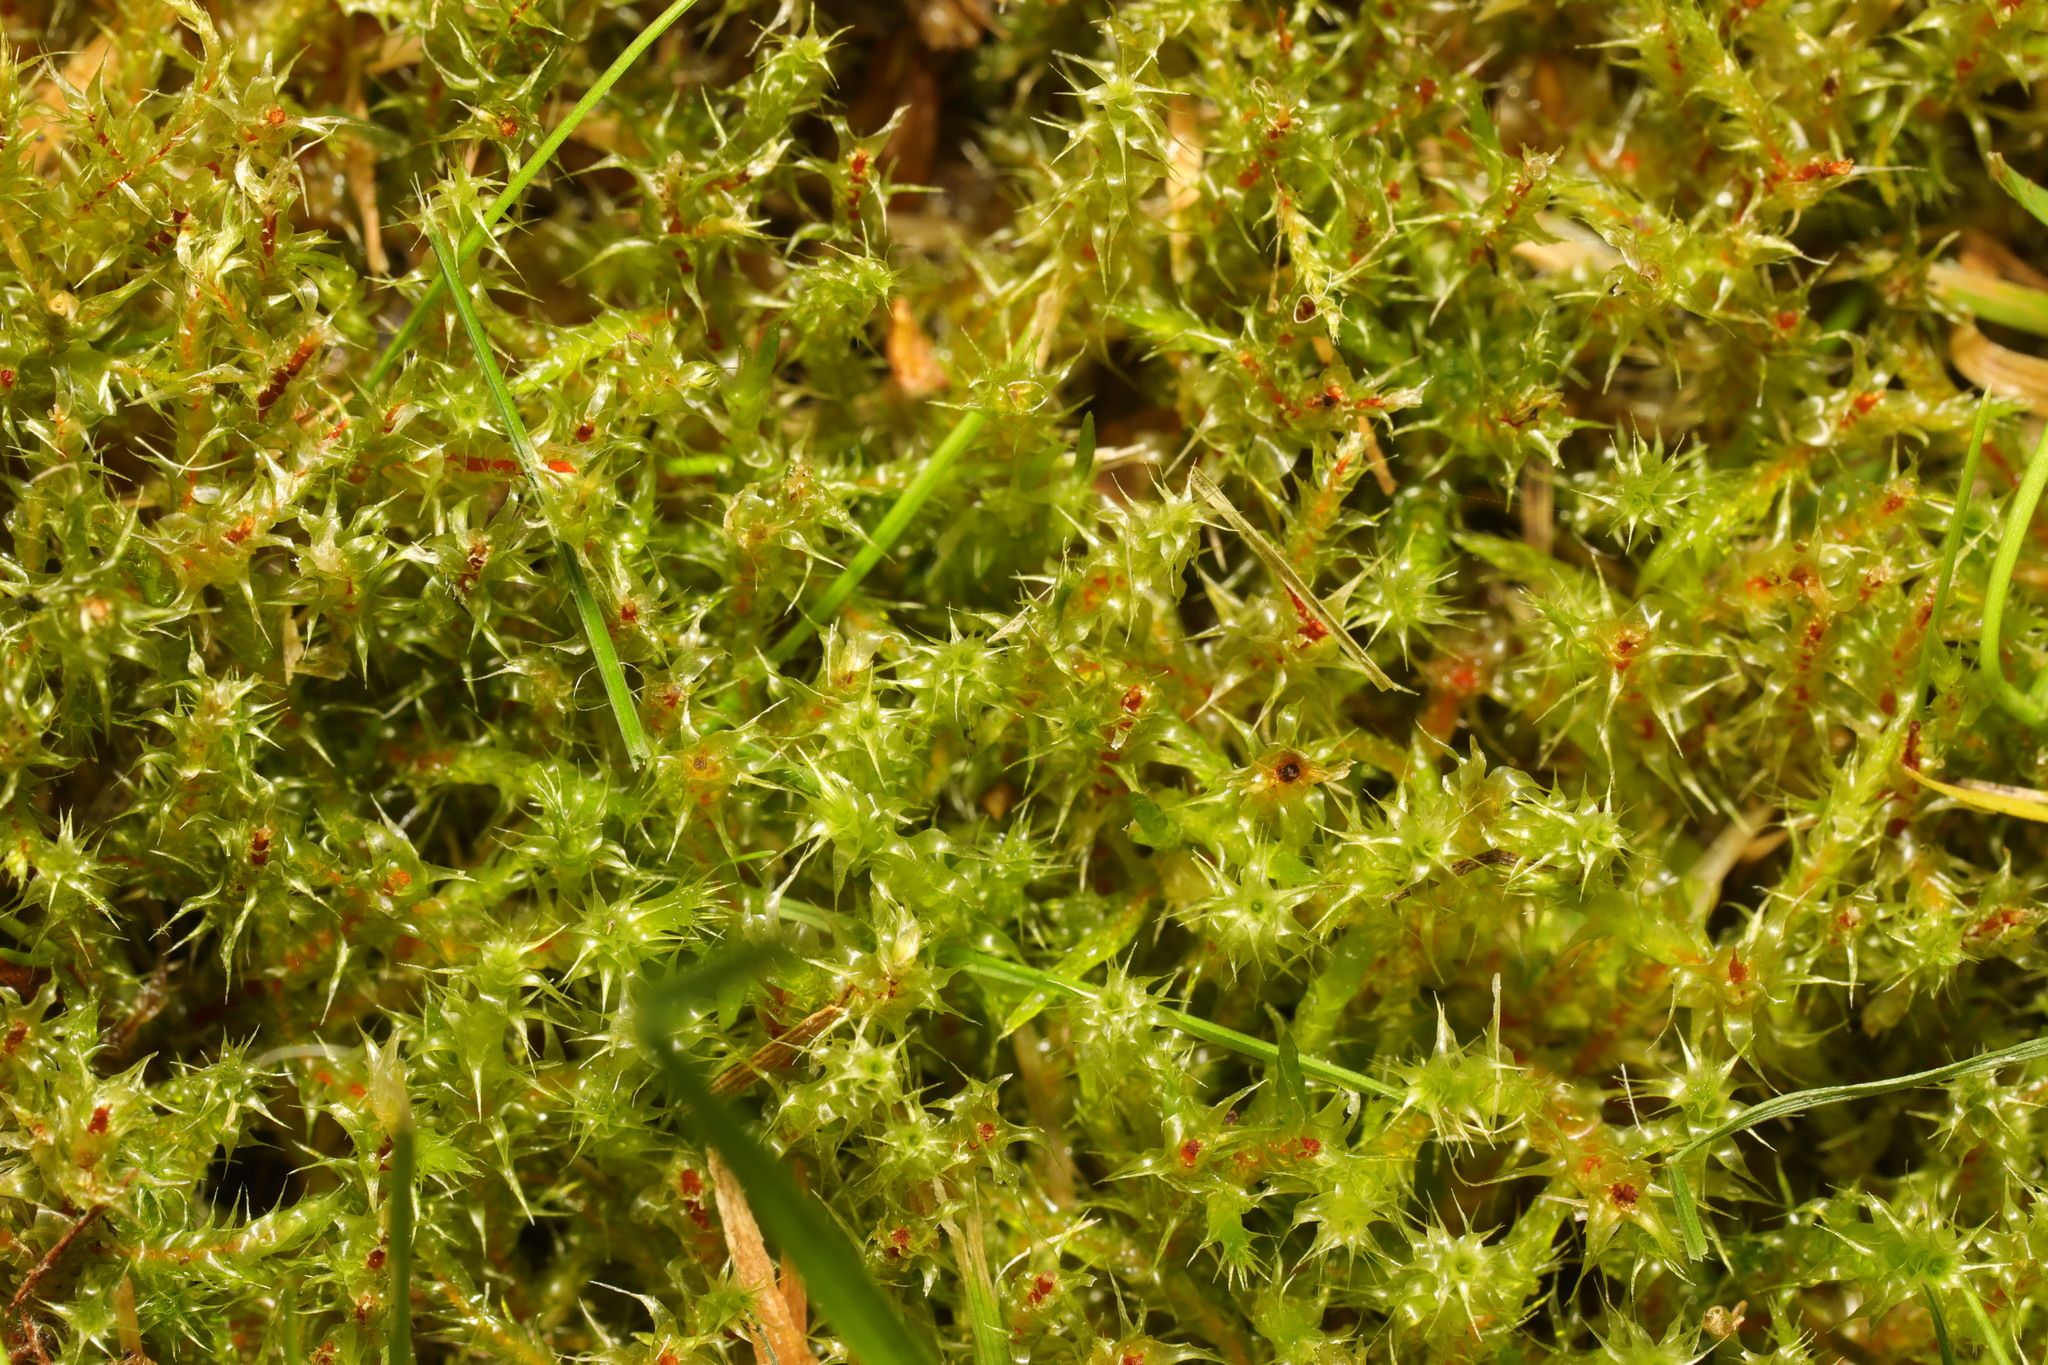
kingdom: Plantae
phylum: Bryophyta
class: Bryopsida
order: Hypnales
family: Hylocomiaceae
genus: Rhytidiadelphus
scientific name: Rhytidiadelphus squarrosus
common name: Springy turf-moss
